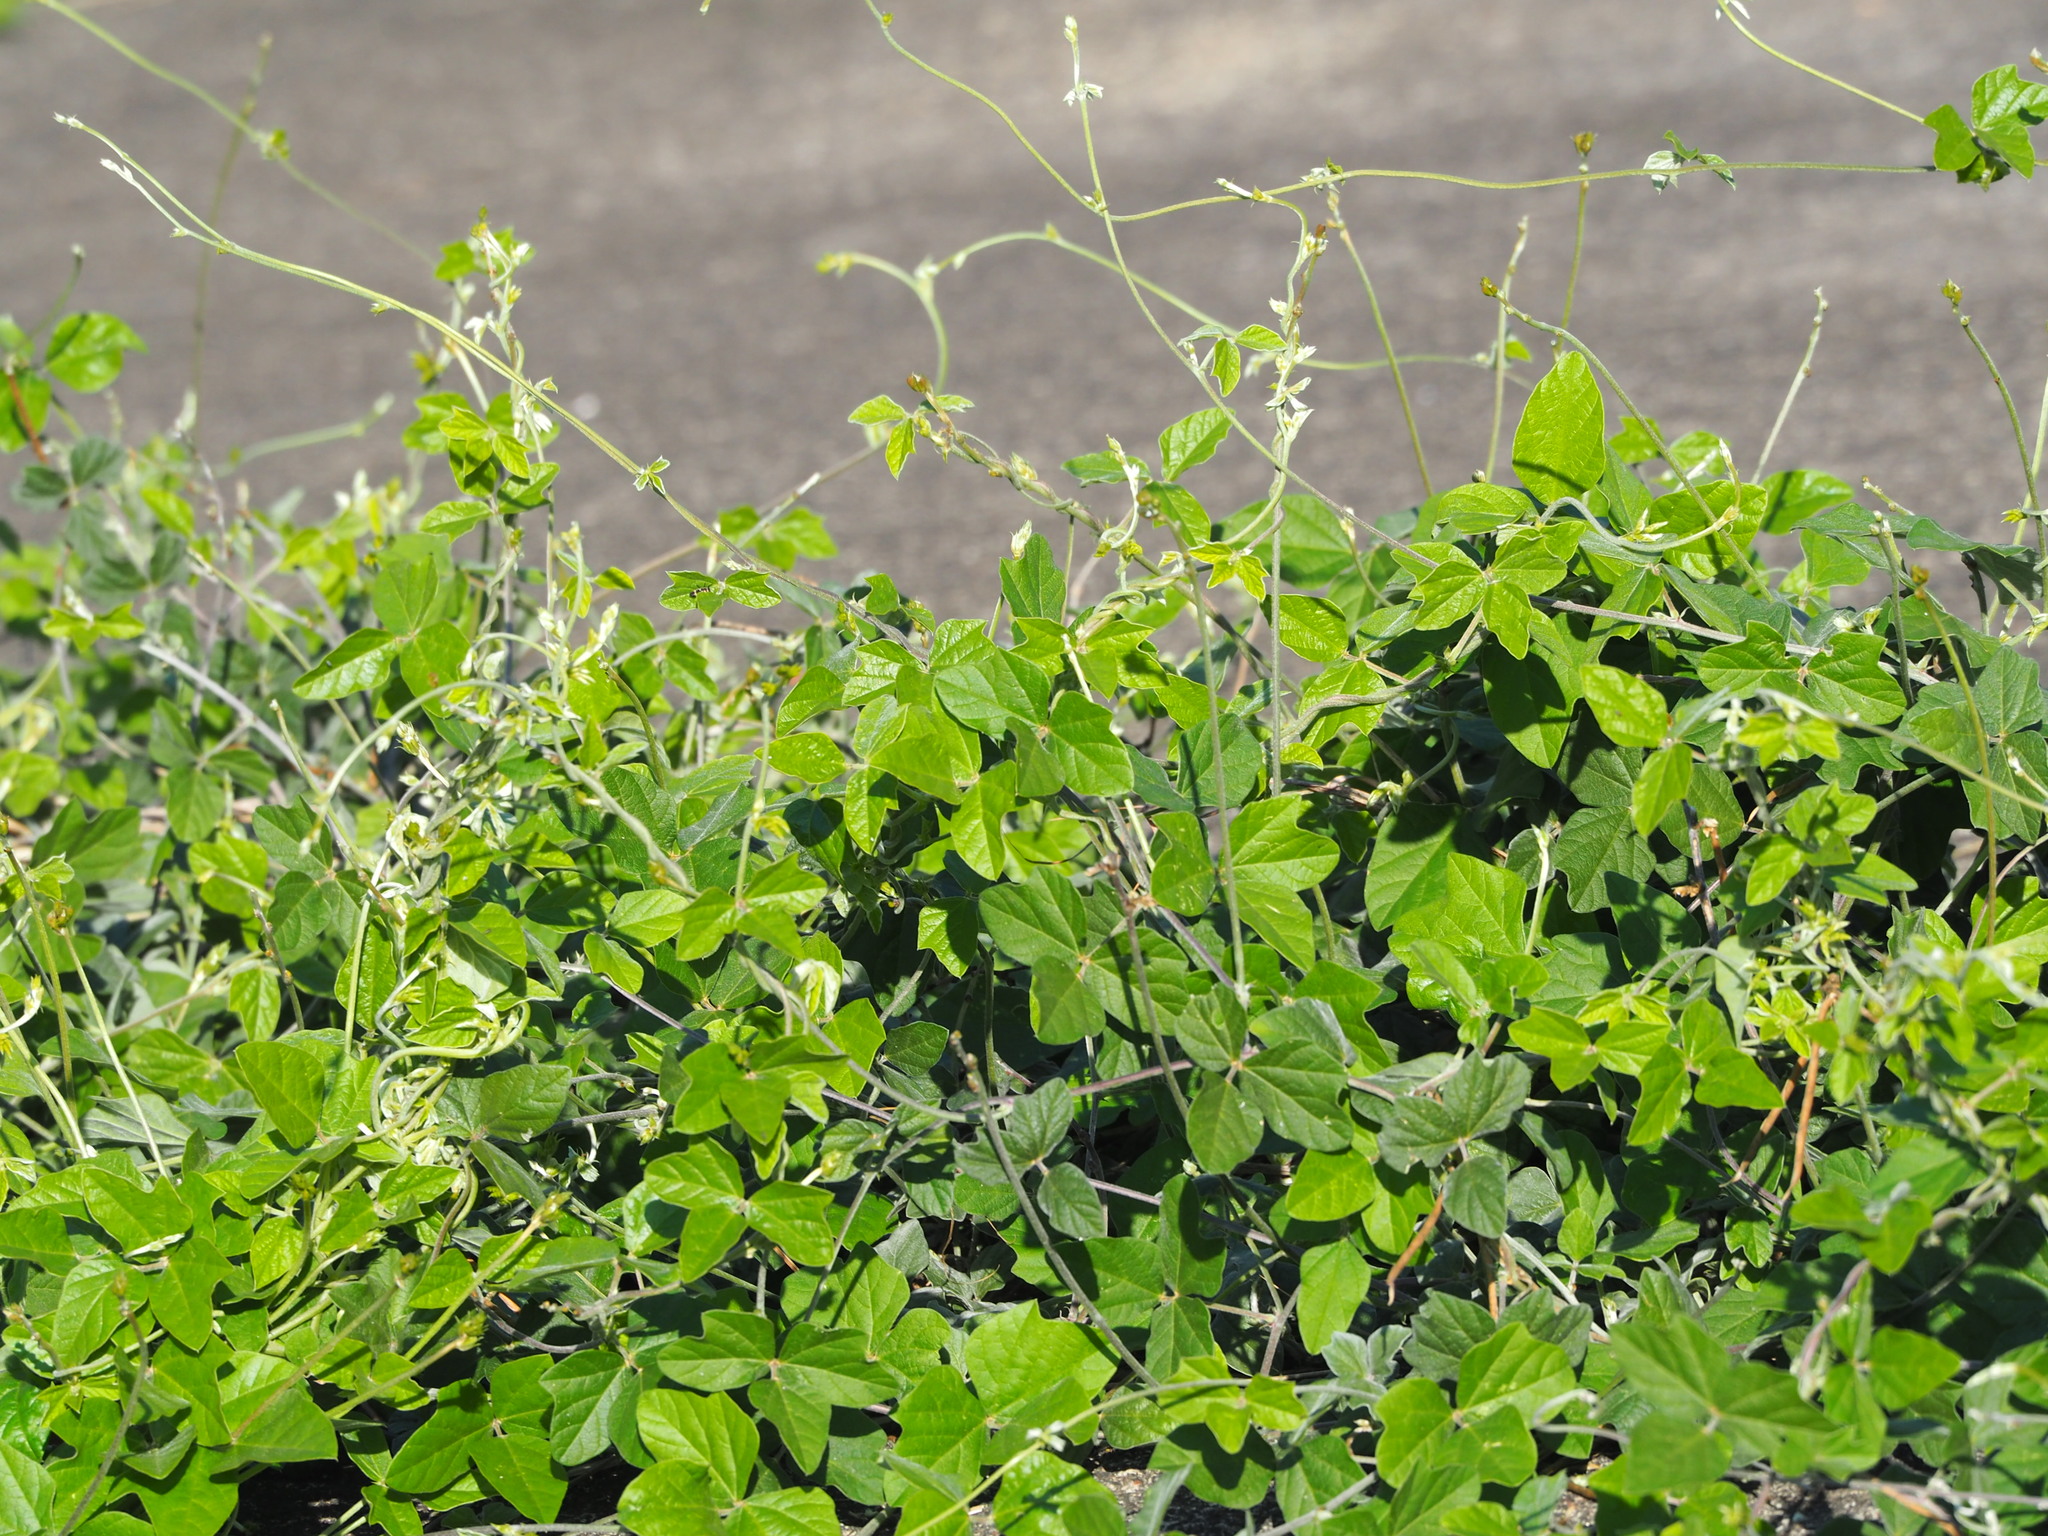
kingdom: Plantae
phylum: Tracheophyta
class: Magnoliopsida
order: Fabales
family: Fabaceae
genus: Macroptilium
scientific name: Macroptilium atropurpureum
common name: Purple bushbean
